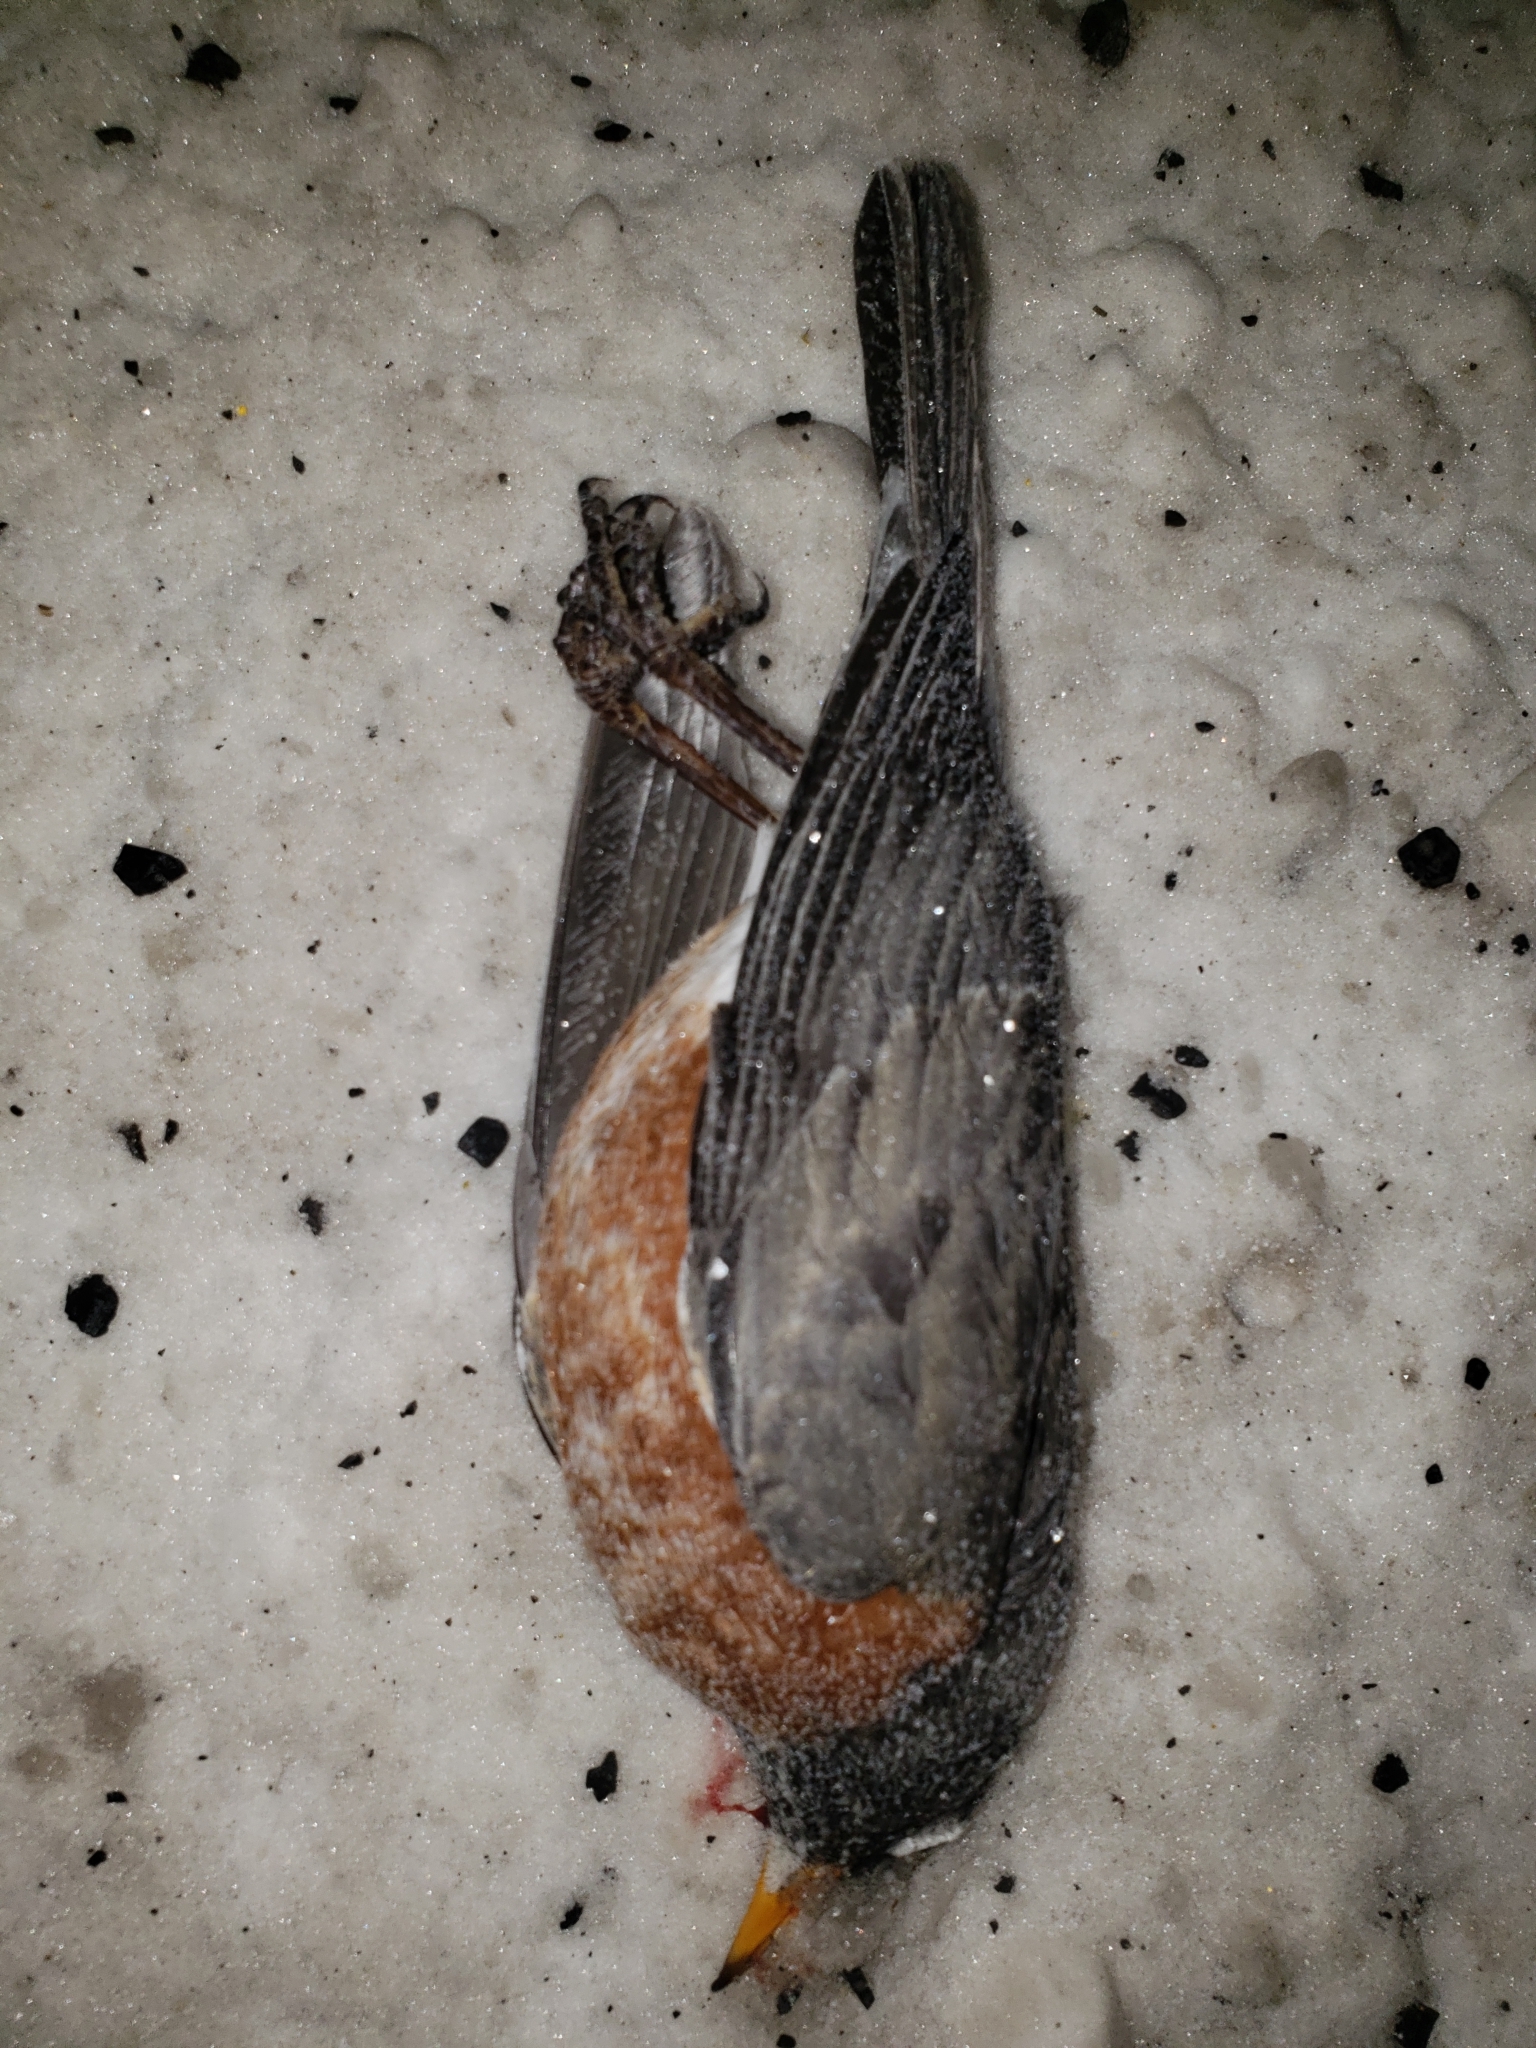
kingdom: Animalia
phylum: Chordata
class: Aves
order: Passeriformes
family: Turdidae
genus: Turdus
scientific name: Turdus migratorius
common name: American robin
